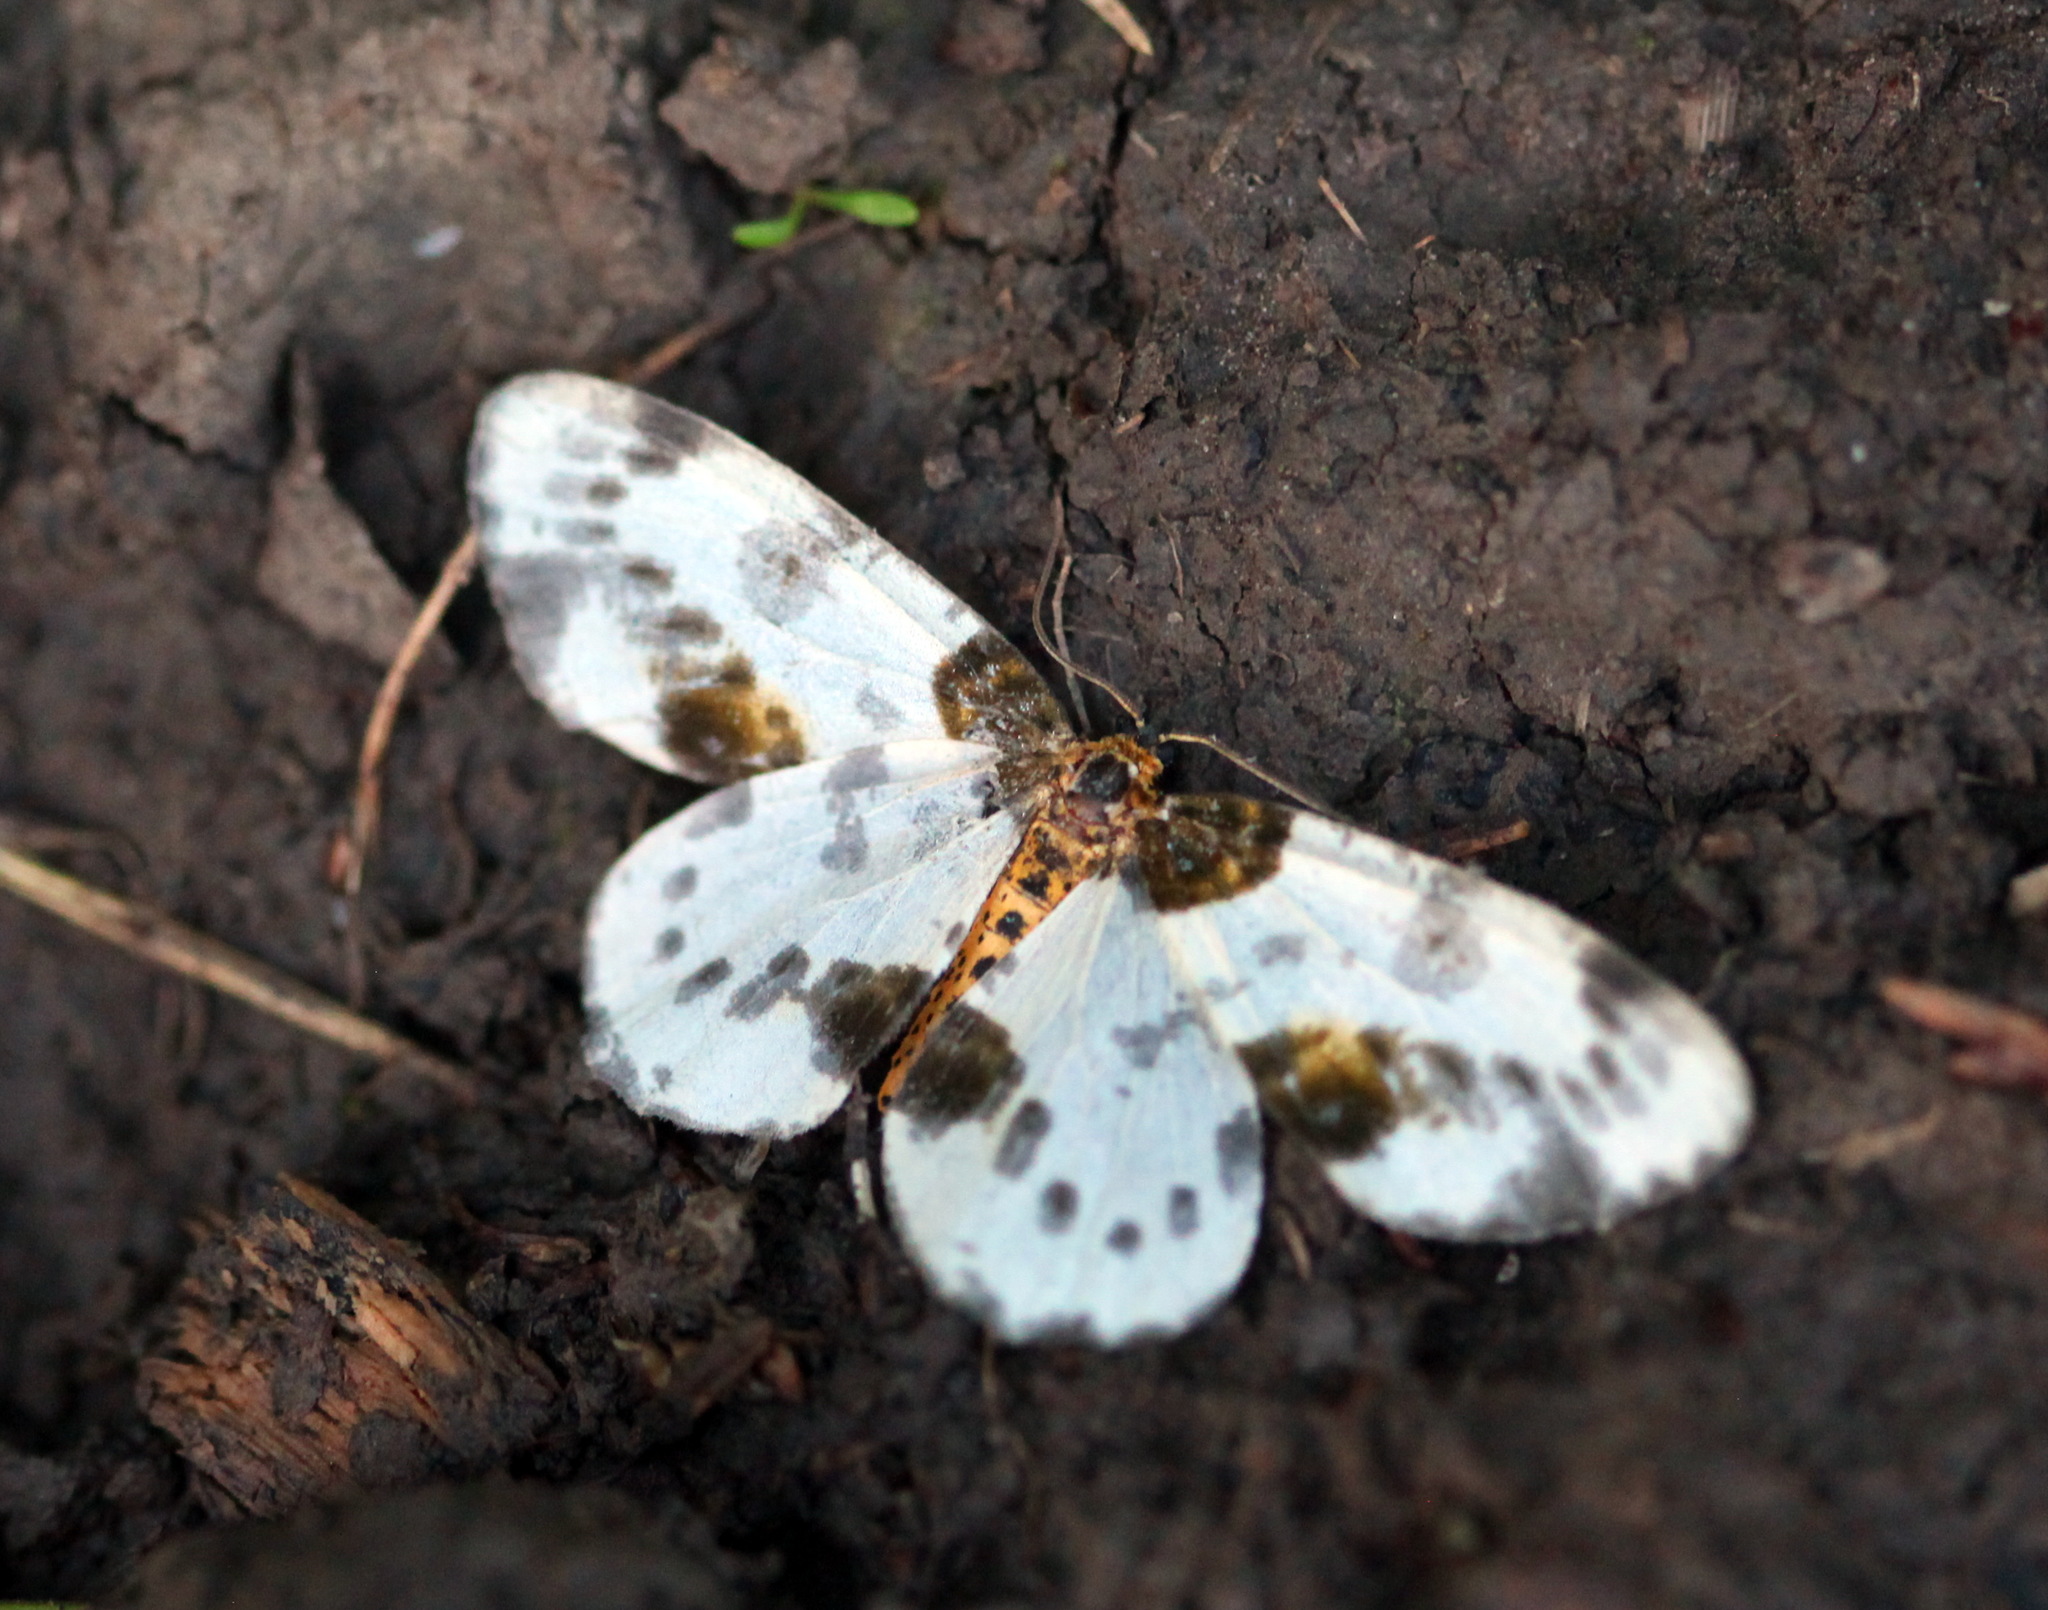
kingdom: Animalia
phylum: Arthropoda
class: Insecta
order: Lepidoptera
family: Geometridae
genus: Abraxas
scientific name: Abraxas sylvata
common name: Clouded magpie
